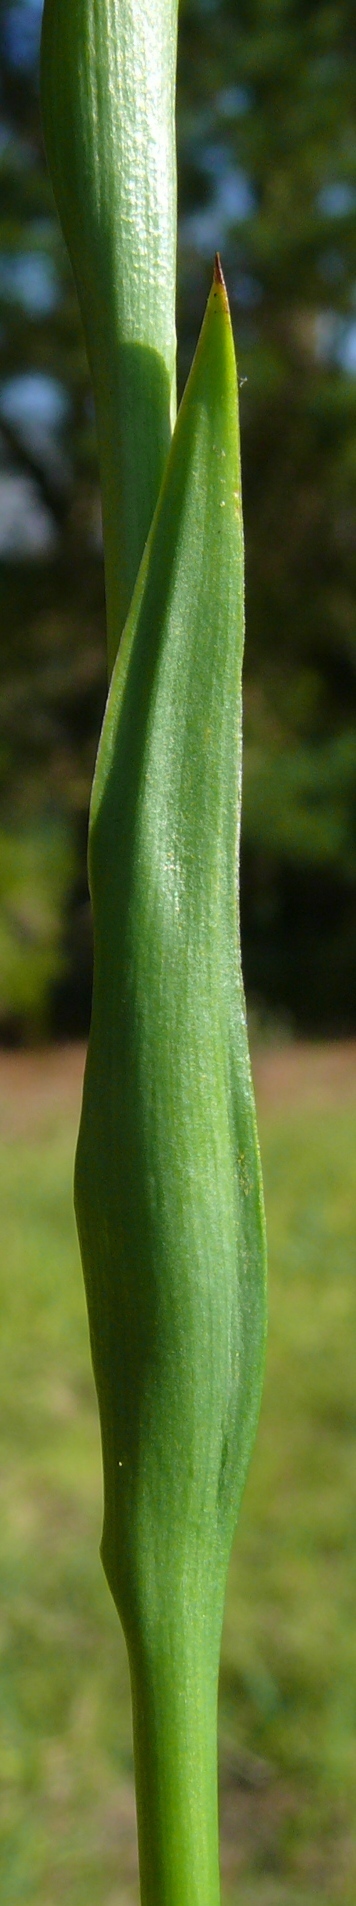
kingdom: Plantae
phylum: Tracheophyta
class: Liliopsida
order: Liliales
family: Colchicaceae
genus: Baeometra
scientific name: Baeometra uniflora
